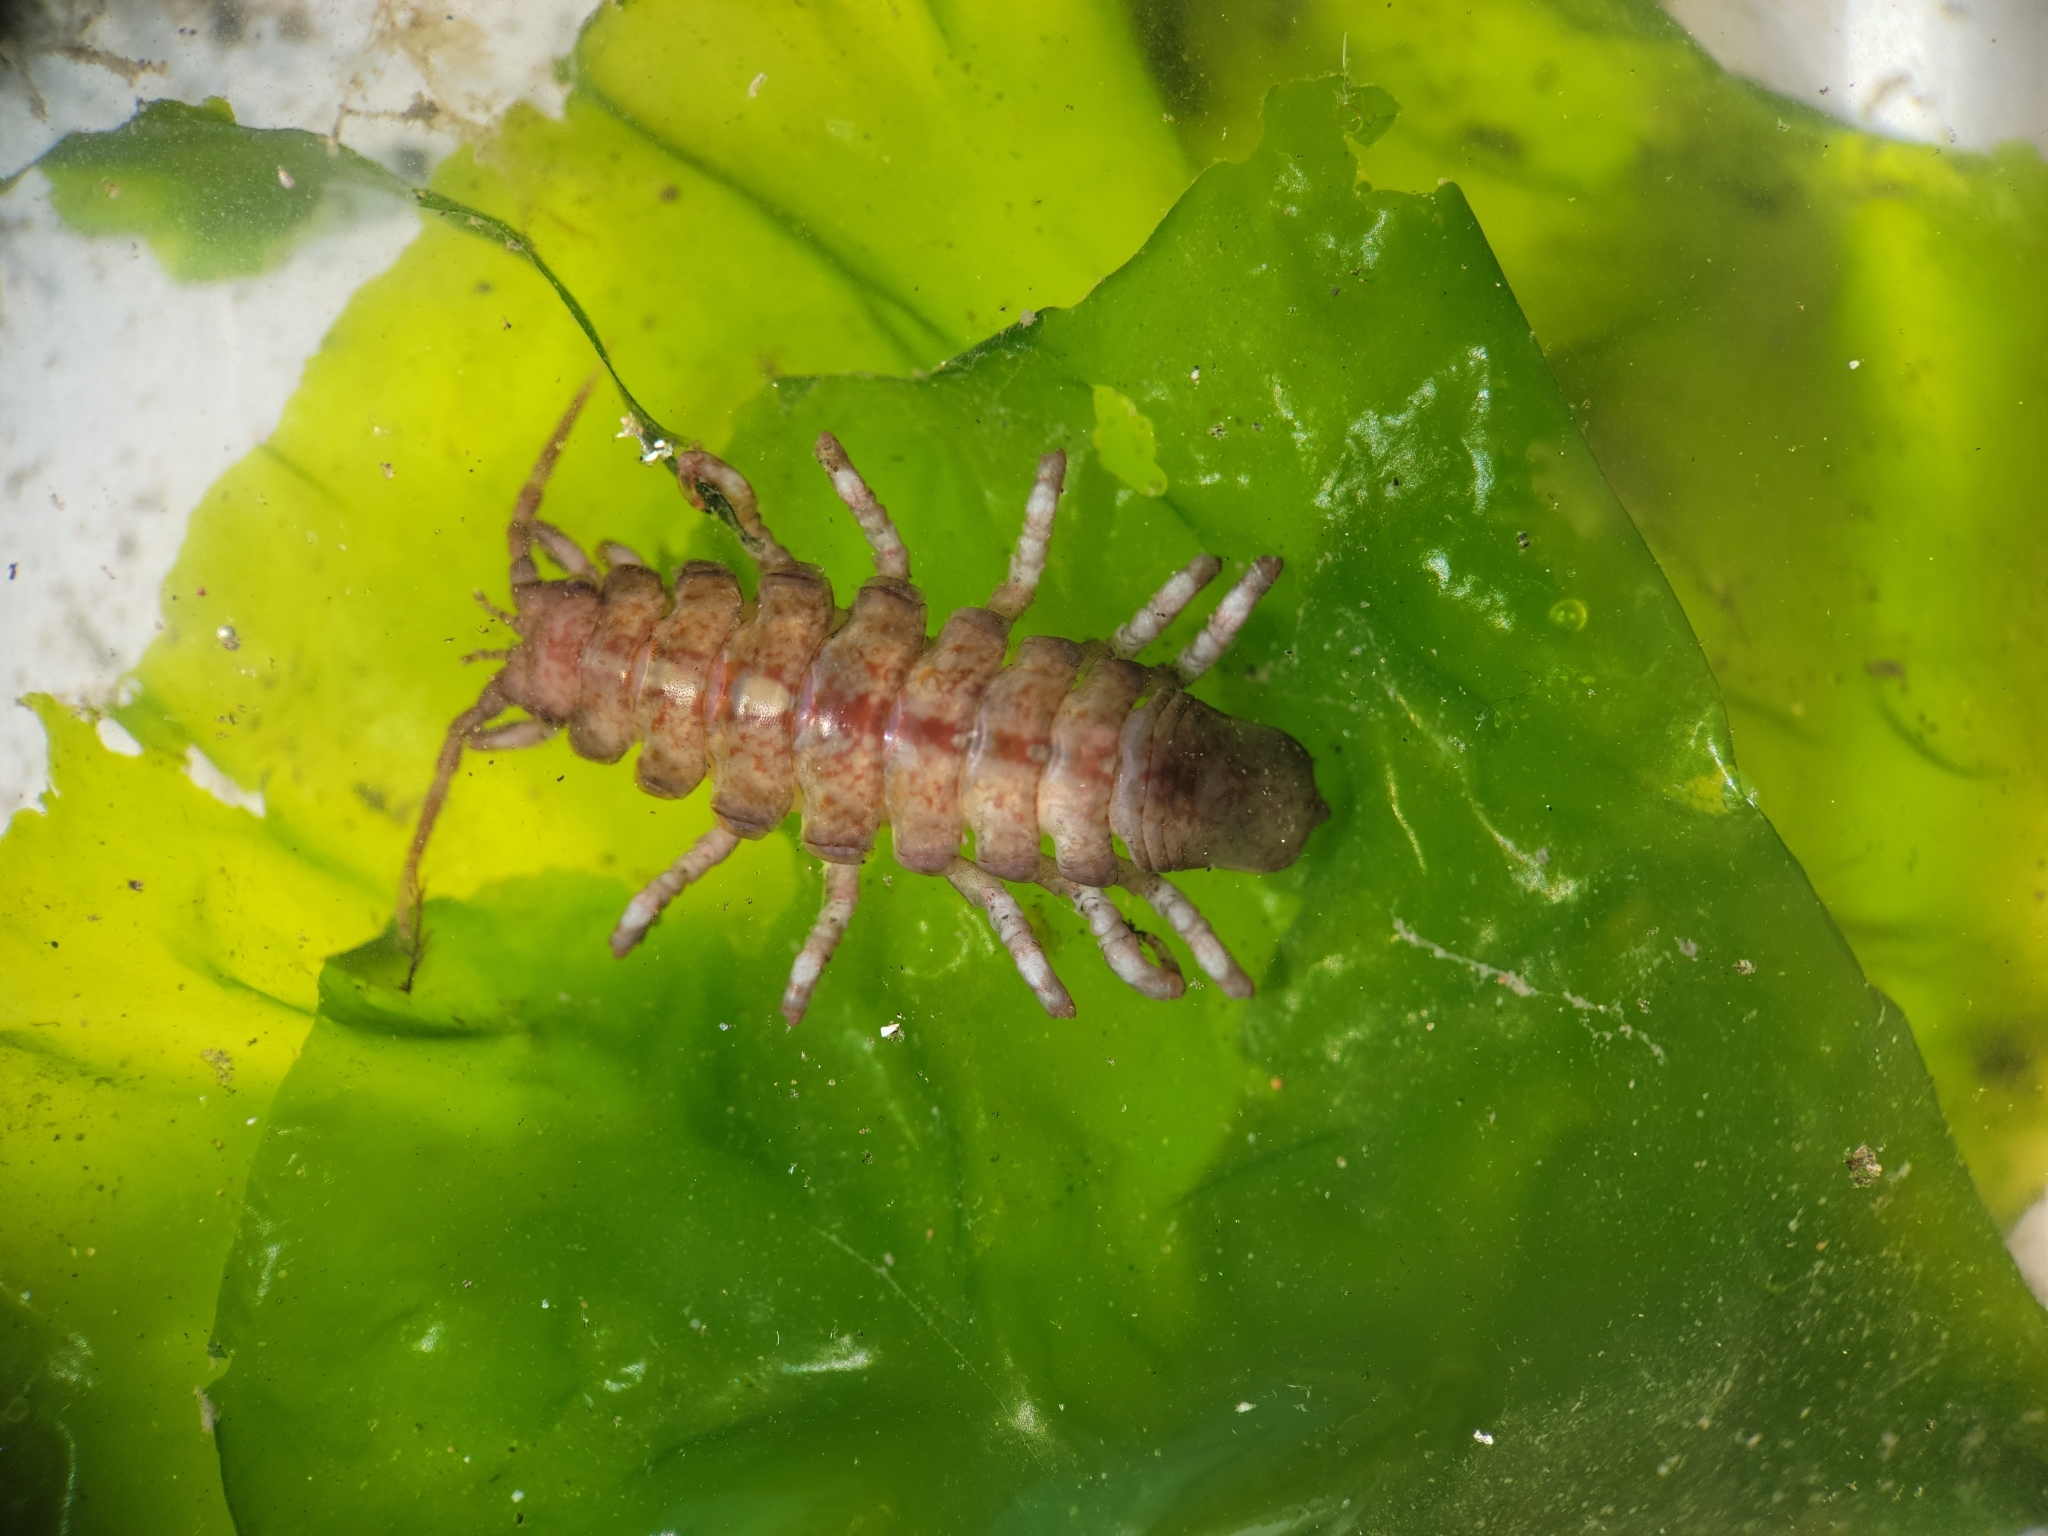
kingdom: Animalia
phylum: Arthropoda
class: Malacostraca
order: Isopoda
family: Idoteidae
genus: Pentidotea
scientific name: Pentidotea schmitti
